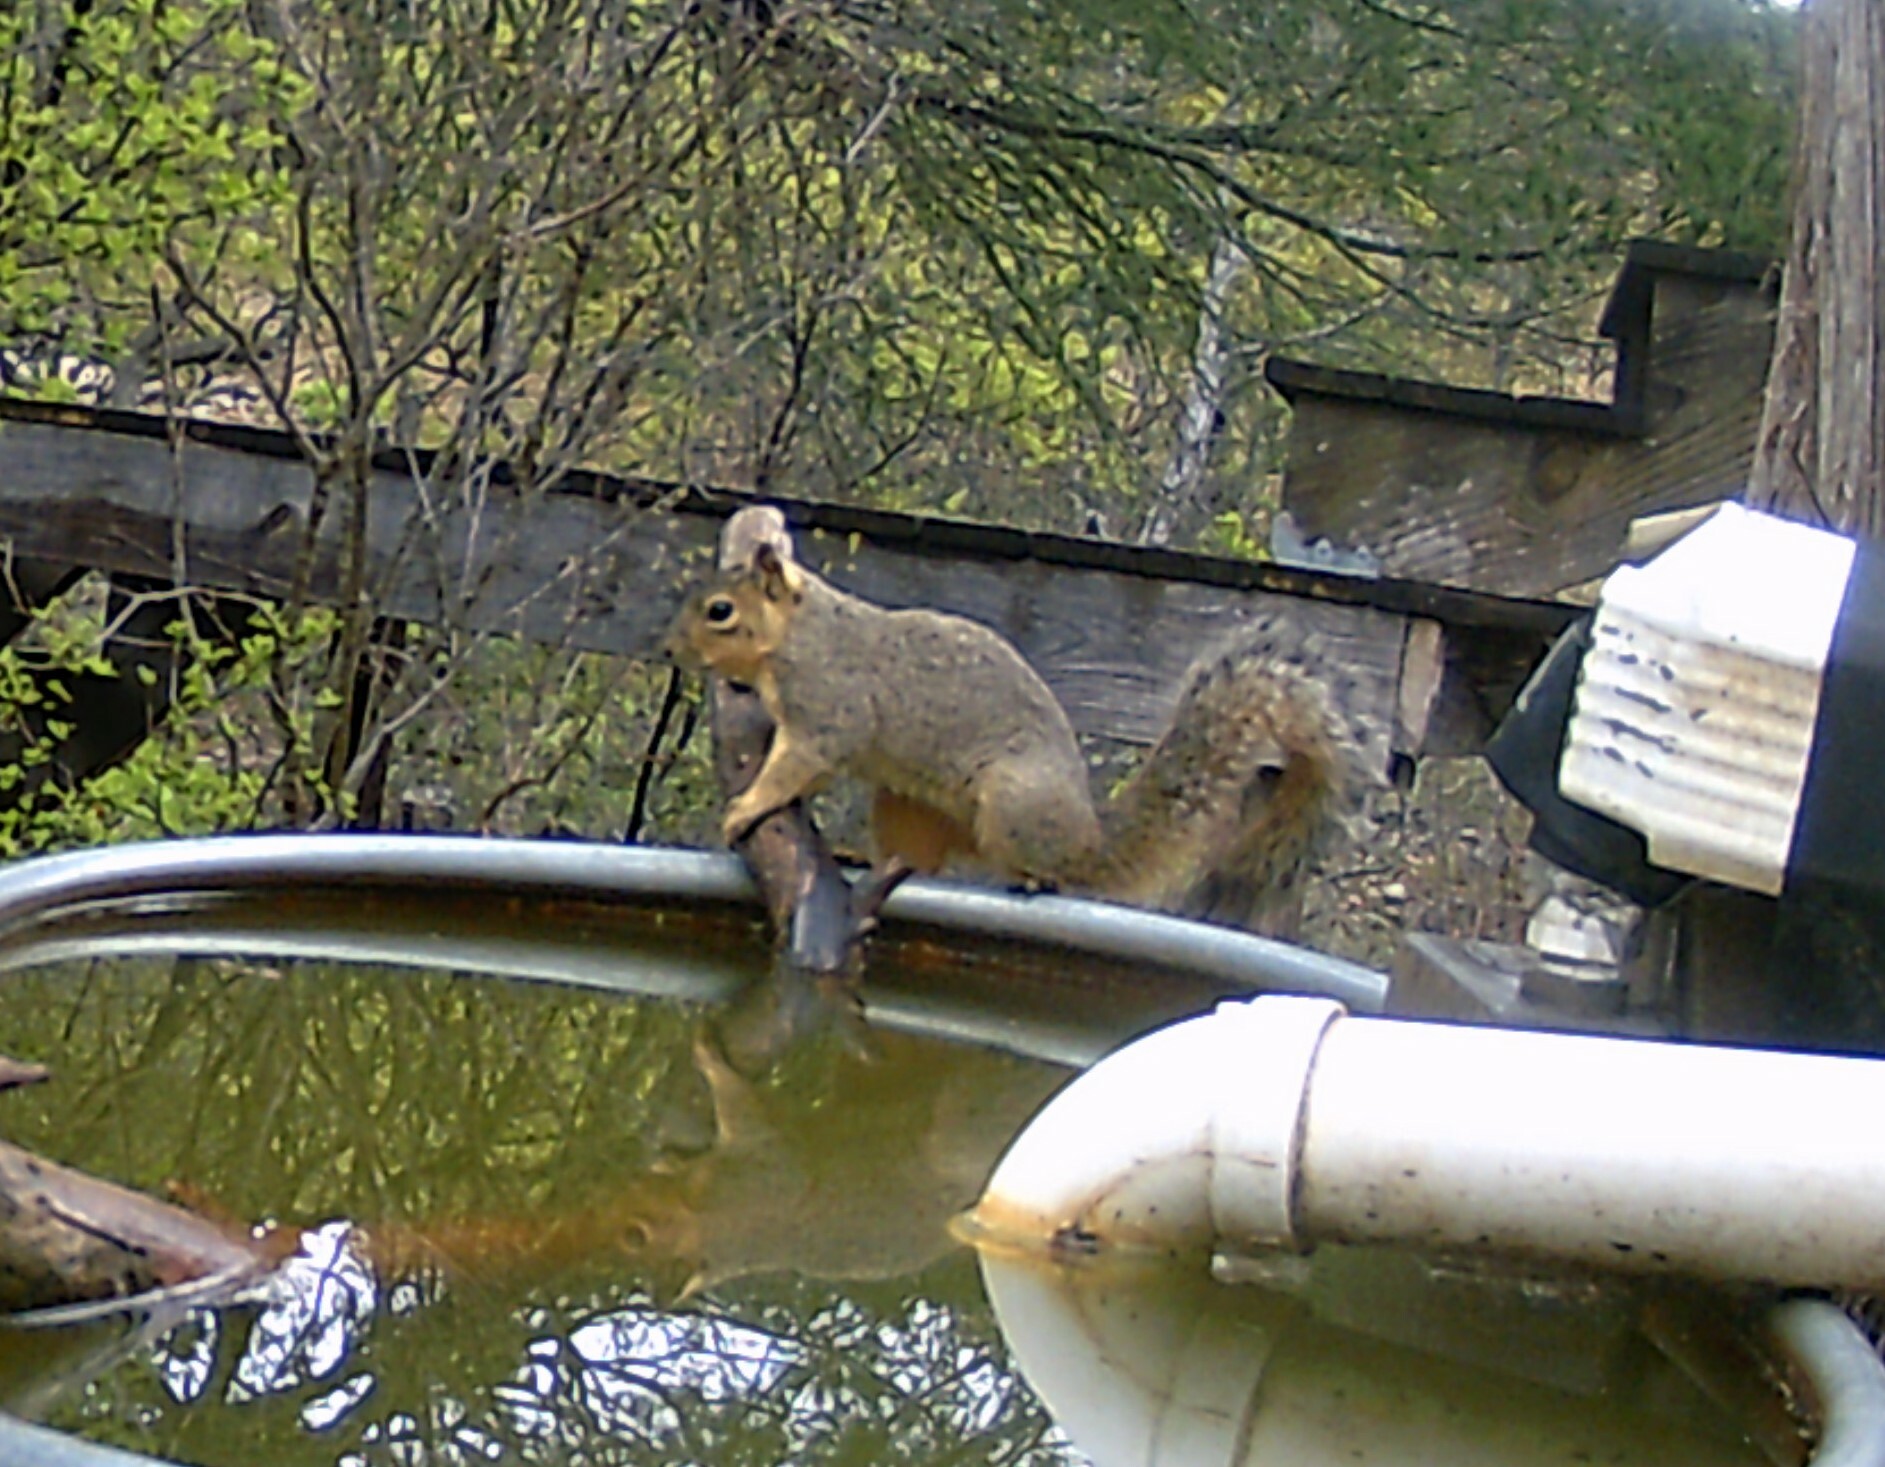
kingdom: Animalia
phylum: Chordata
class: Mammalia
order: Rodentia
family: Sciuridae
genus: Sciurus
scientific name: Sciurus niger
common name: Fox squirrel
